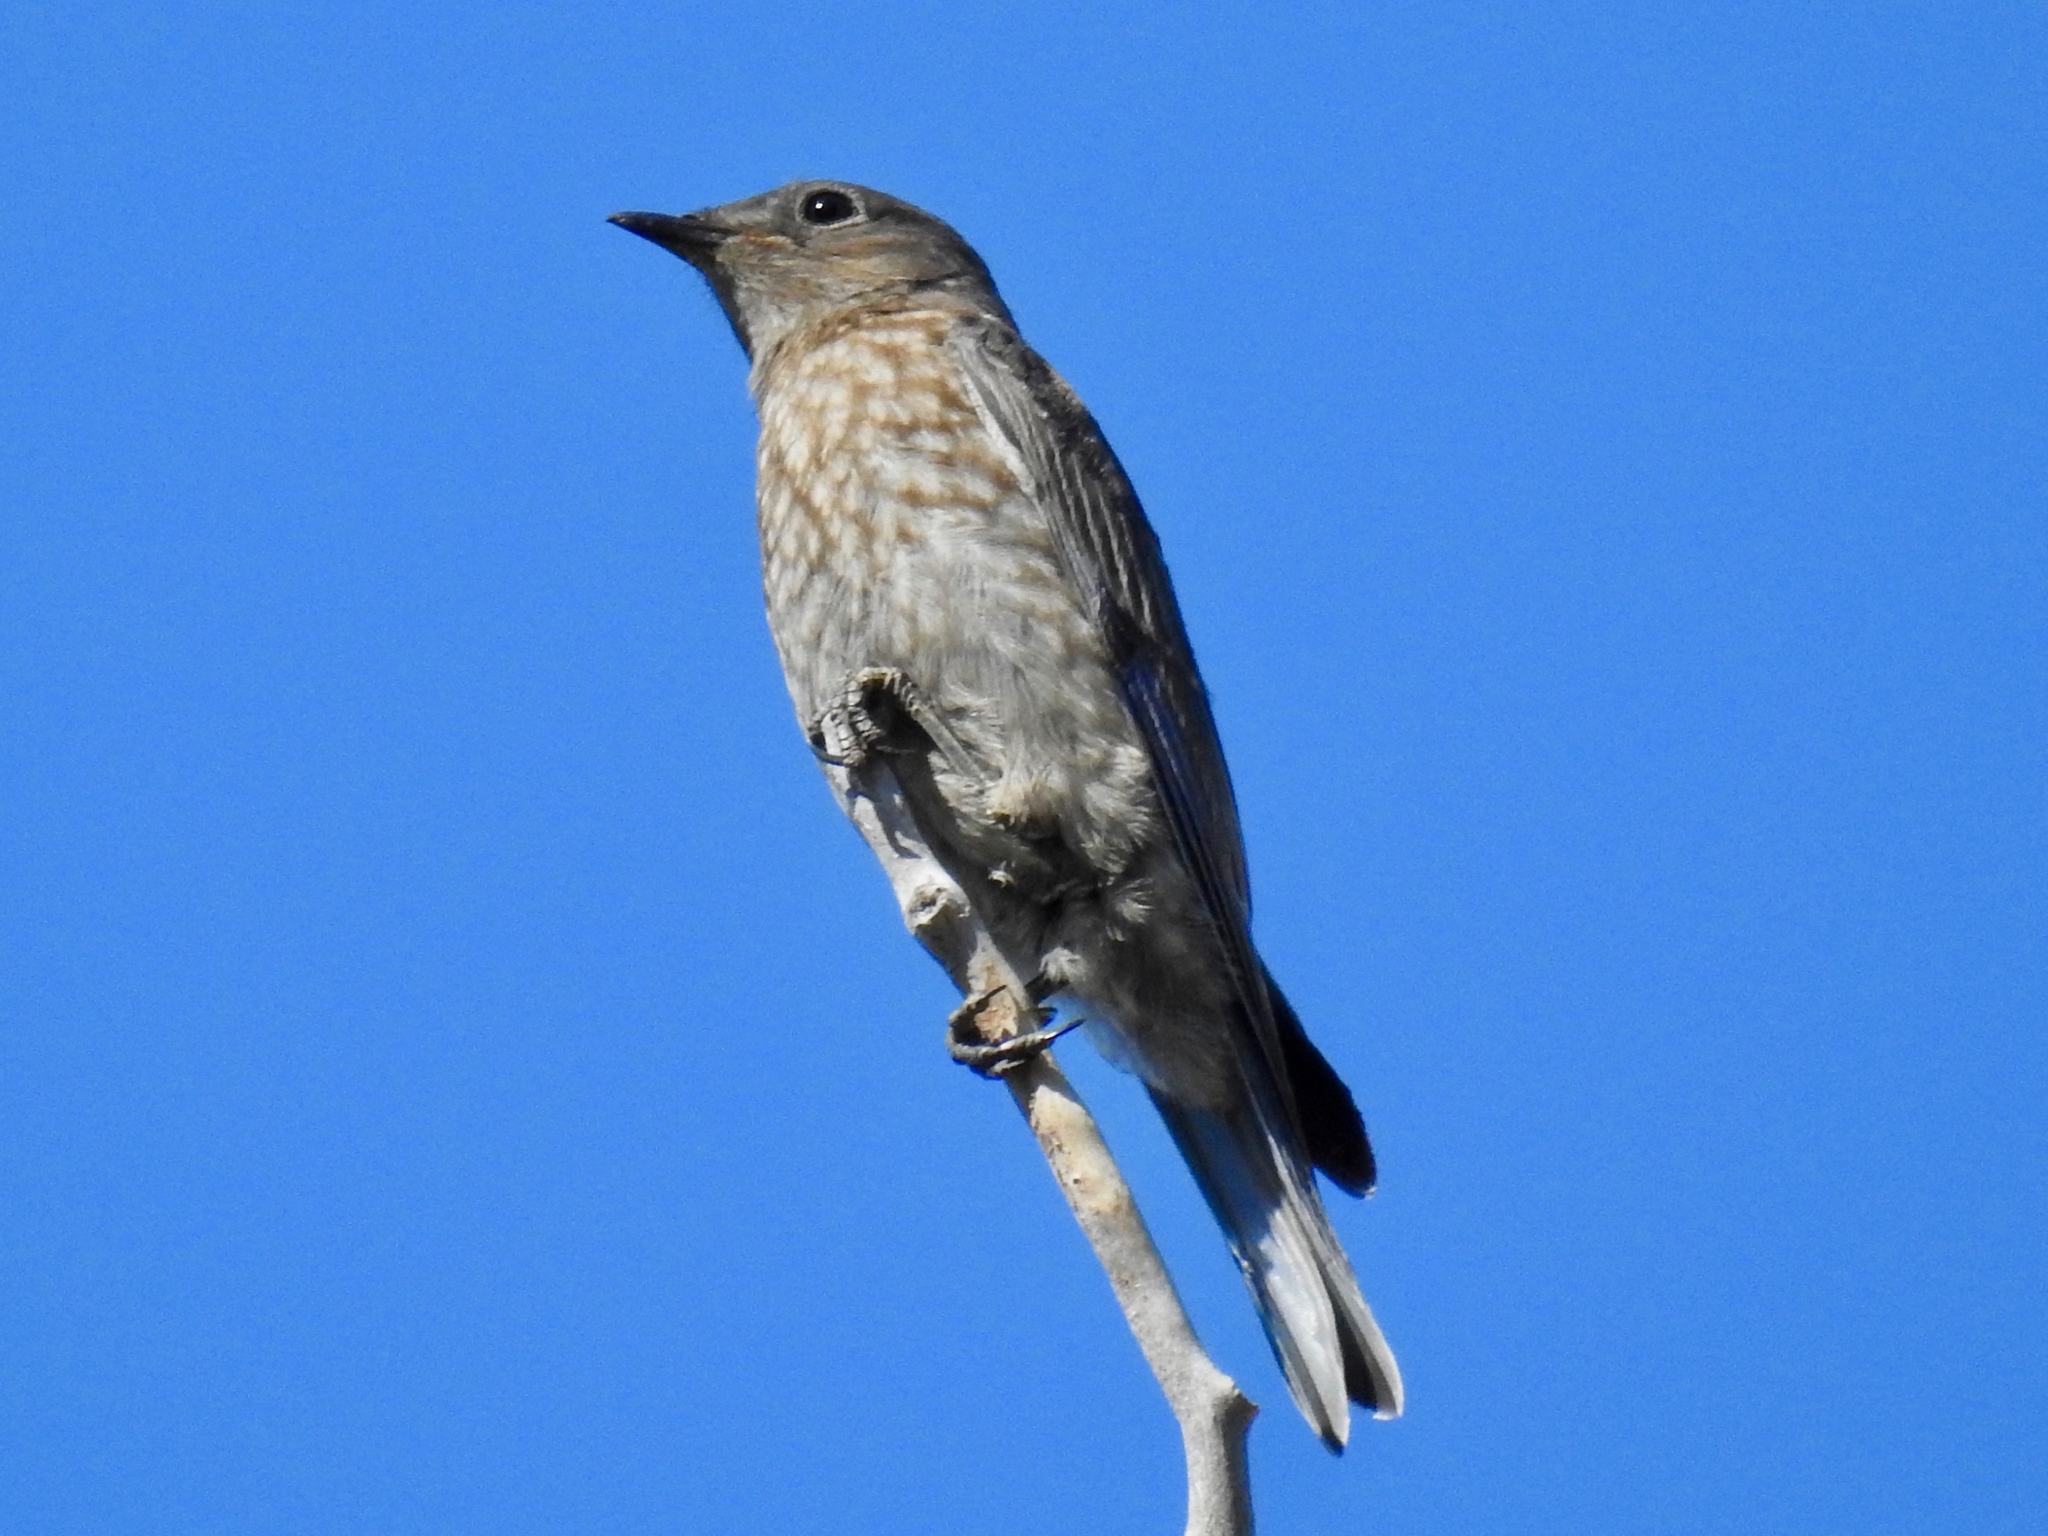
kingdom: Animalia
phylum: Chordata
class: Aves
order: Passeriformes
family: Turdidae
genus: Sialia
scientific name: Sialia mexicana
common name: Western bluebird
